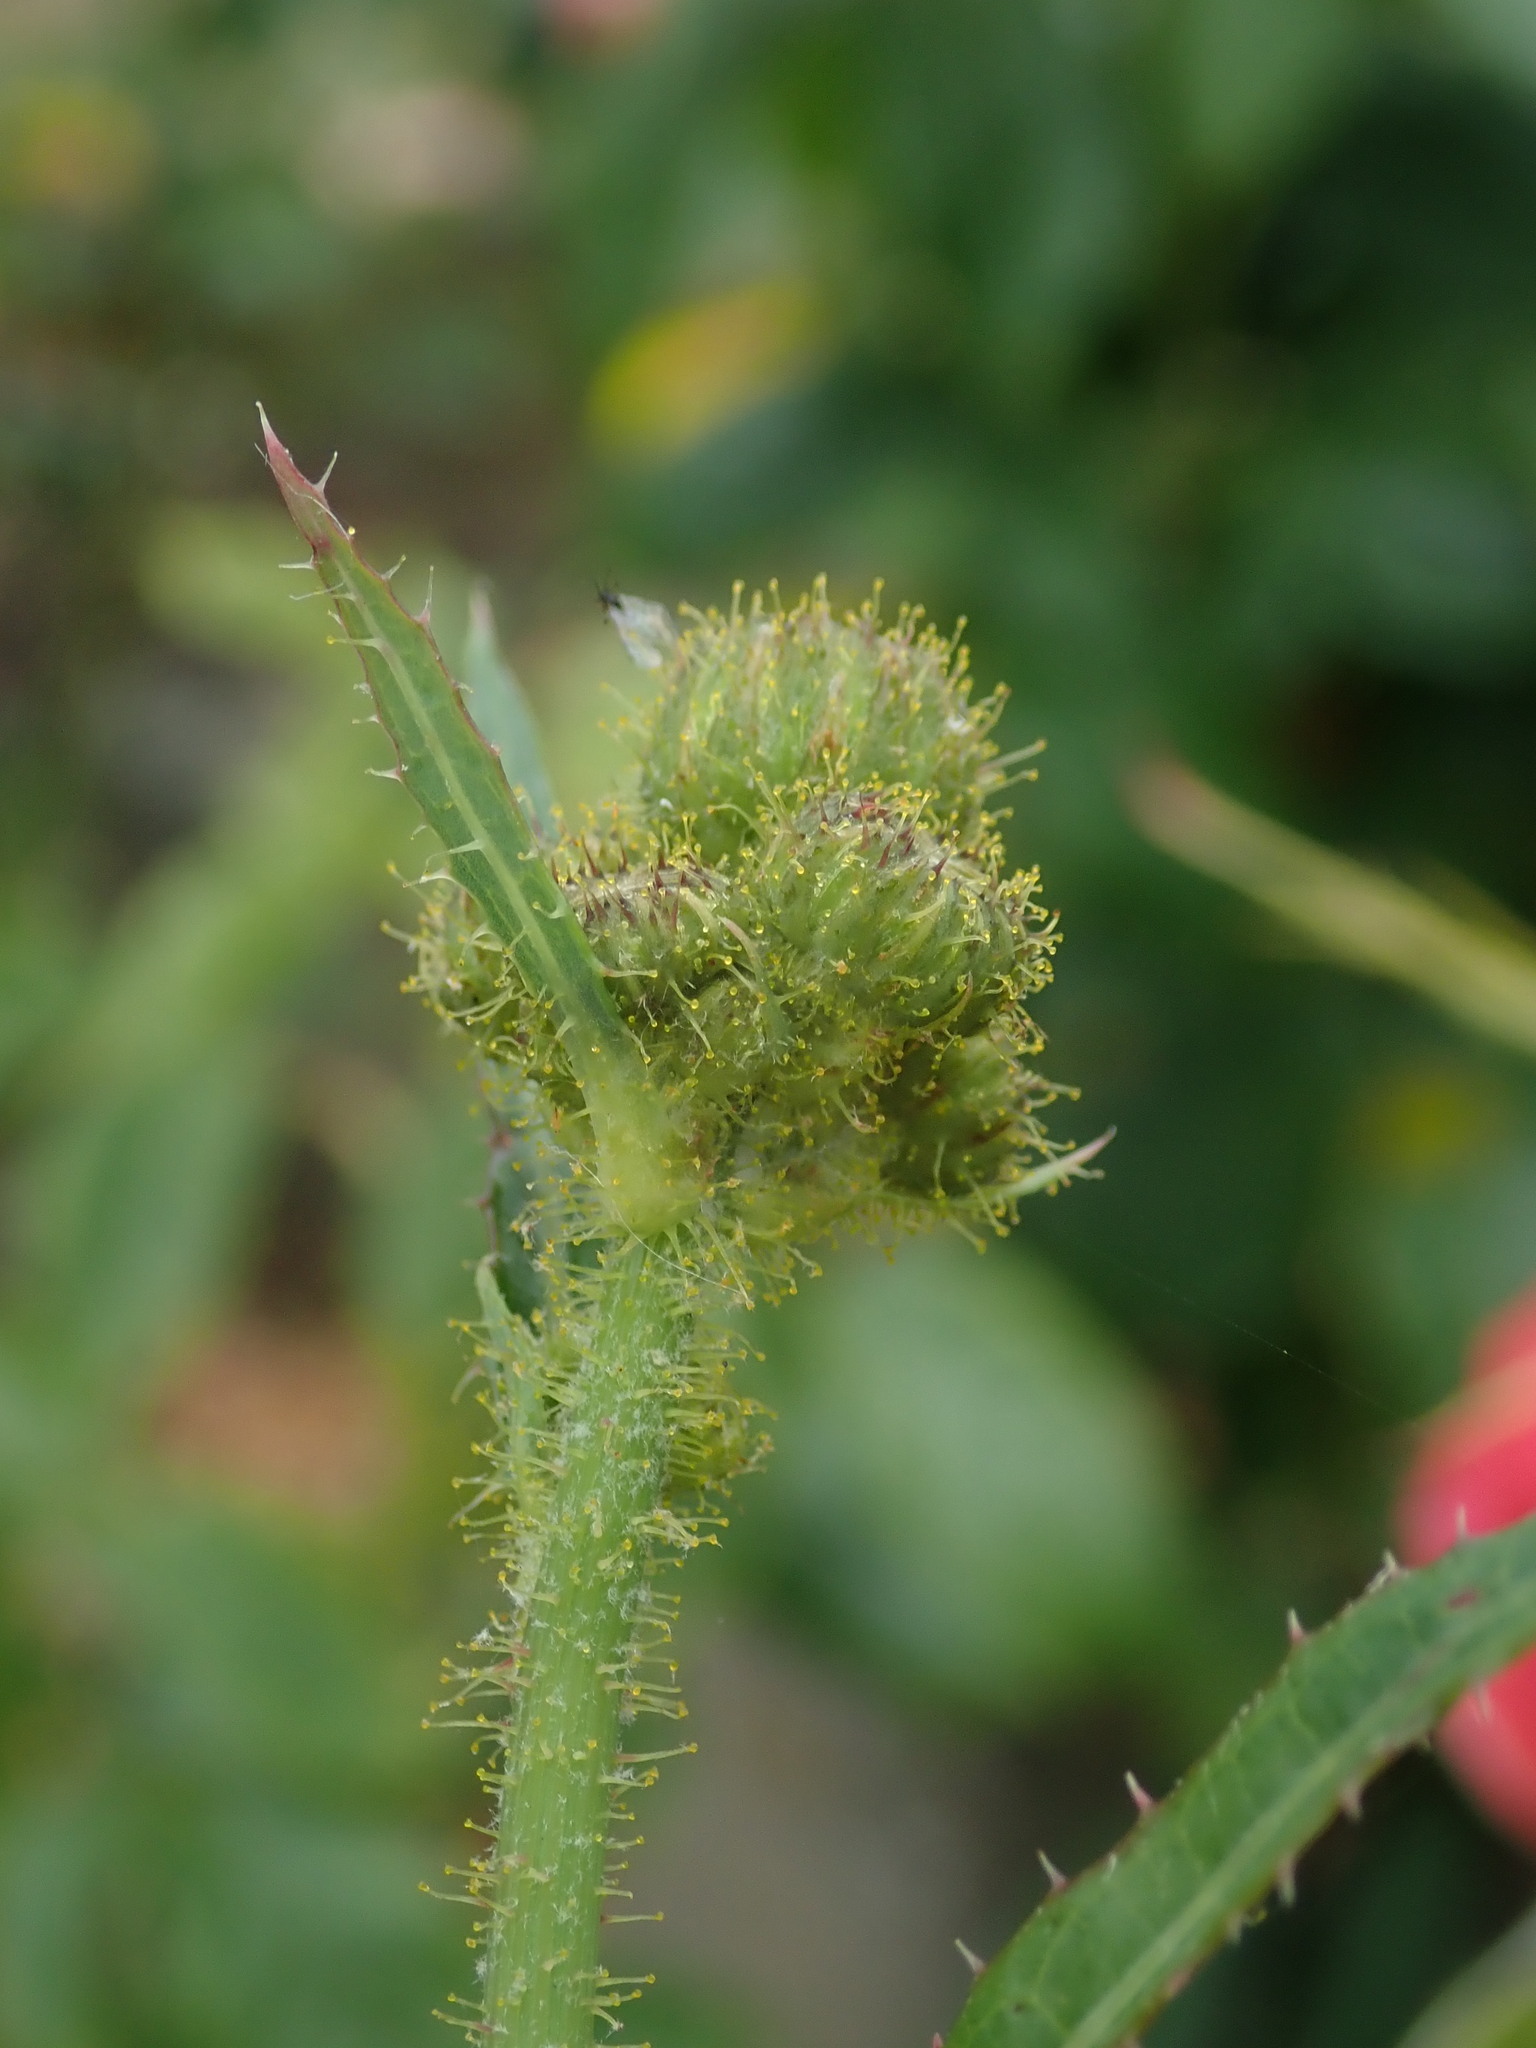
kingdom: Plantae
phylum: Tracheophyta
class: Magnoliopsida
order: Asterales
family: Asteraceae
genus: Sonchus
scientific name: Sonchus arvensis
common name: Perennial sow-thistle
